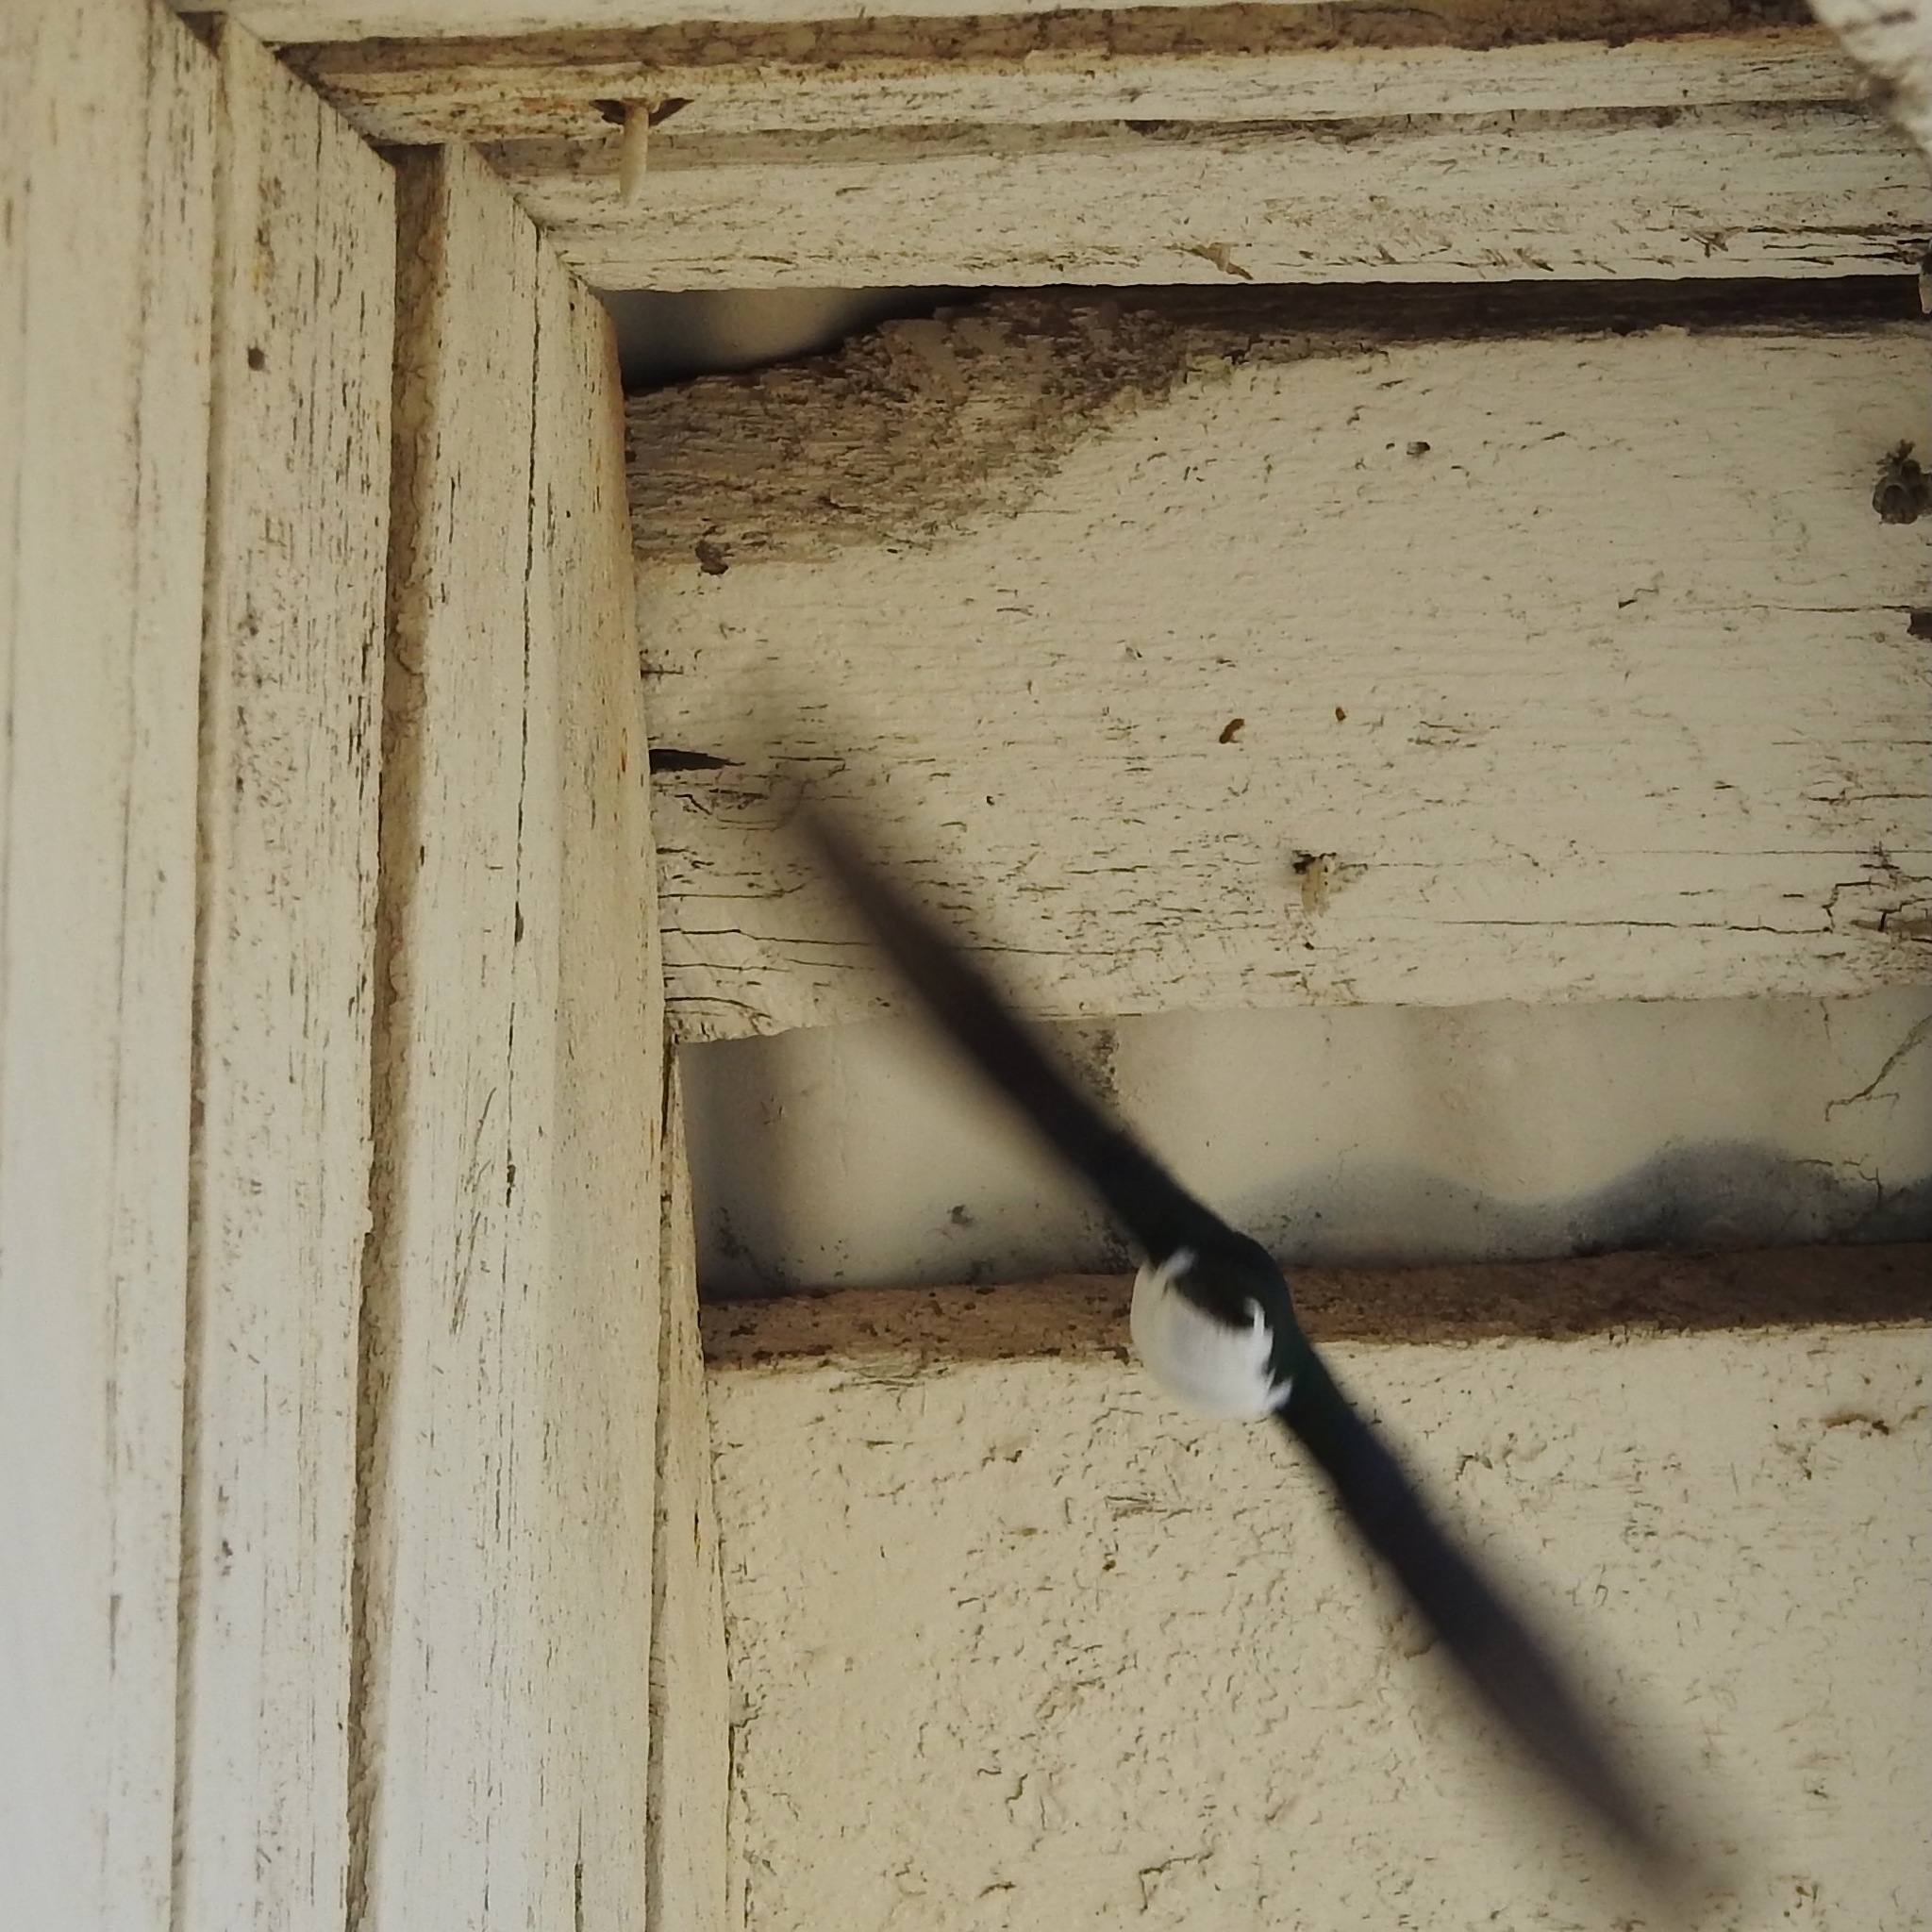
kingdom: Animalia
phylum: Chordata
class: Aves
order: Passeriformes
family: Hirundinidae
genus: Tachycineta
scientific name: Tachycineta thalassina
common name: Violet-green swallow
